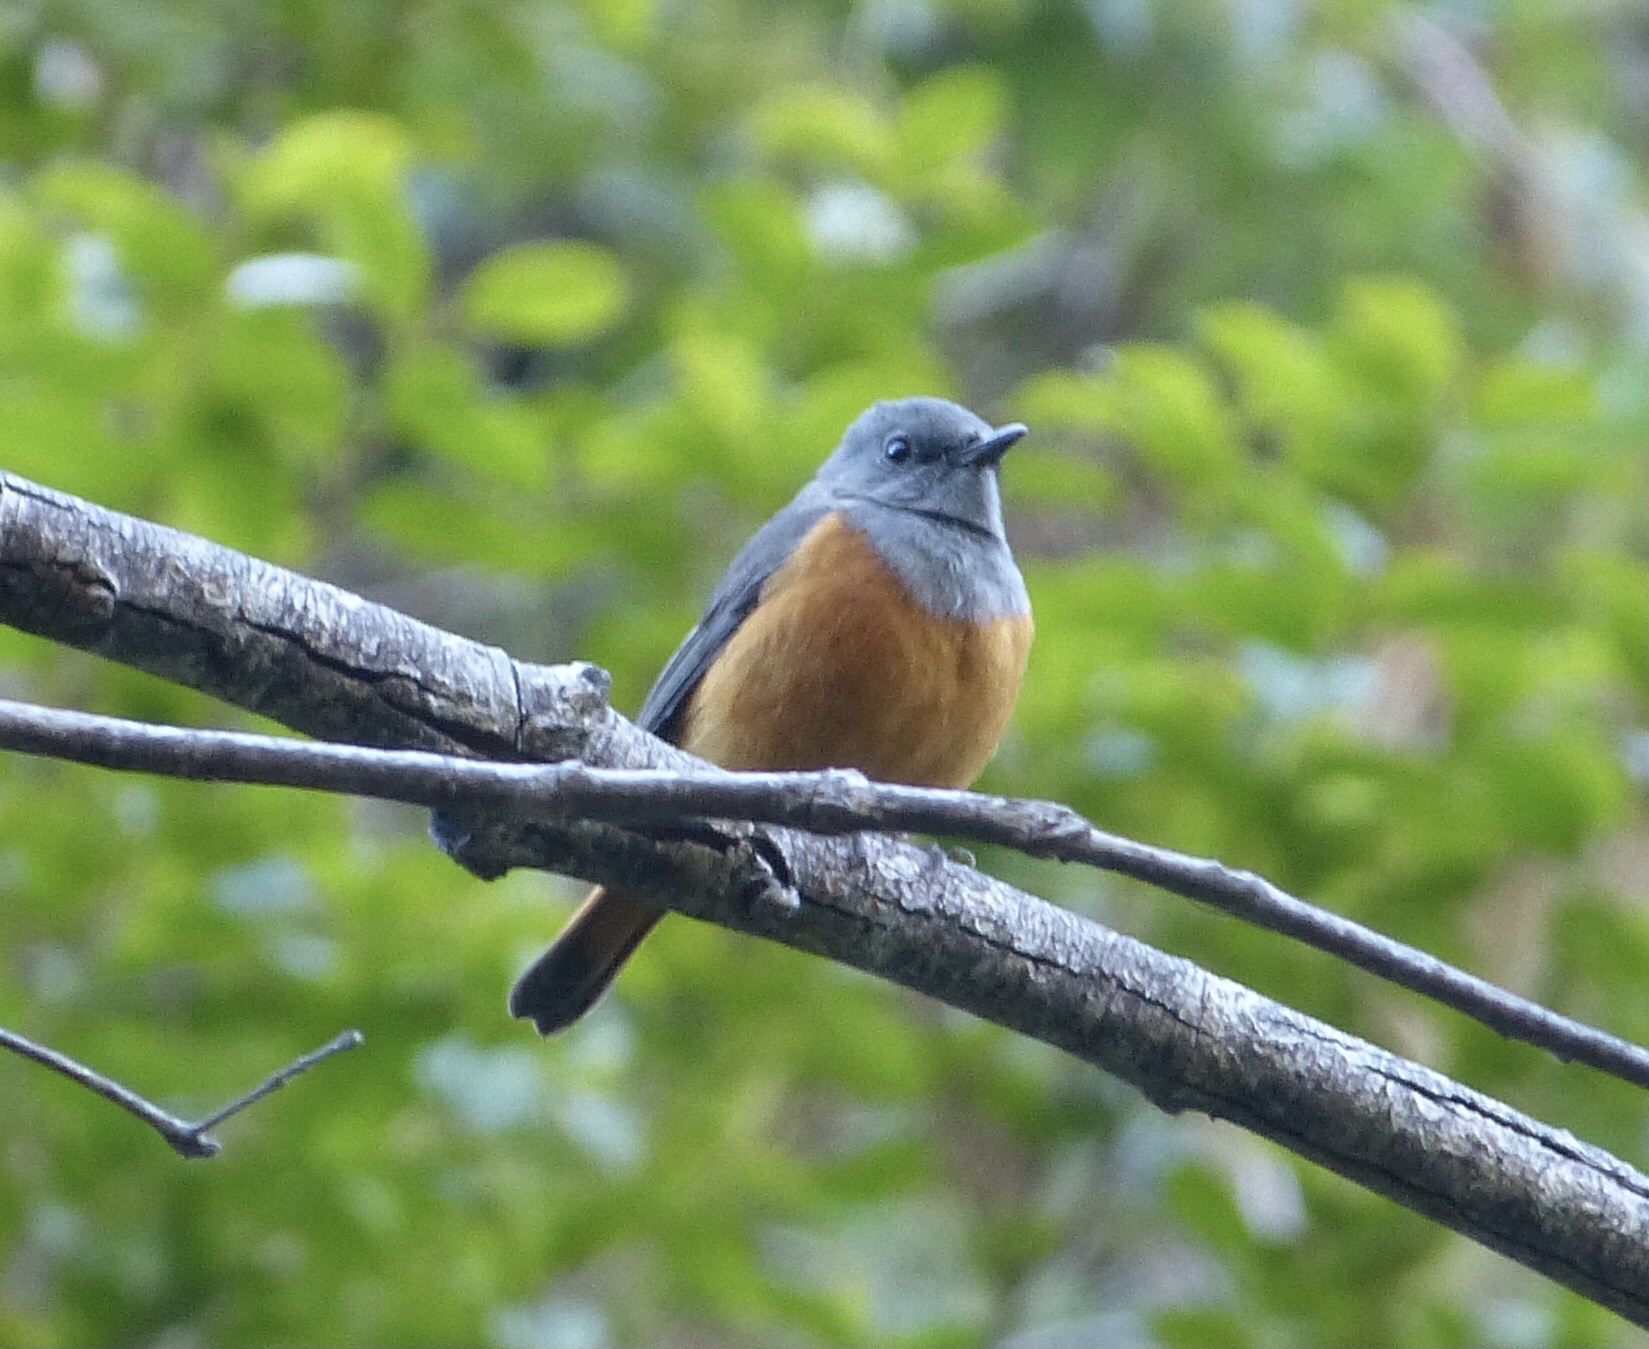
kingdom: Animalia
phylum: Chordata
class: Aves
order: Passeriformes
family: Muscicapidae
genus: Monticola
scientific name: Monticola sharpei
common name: Forest rock-thrush
